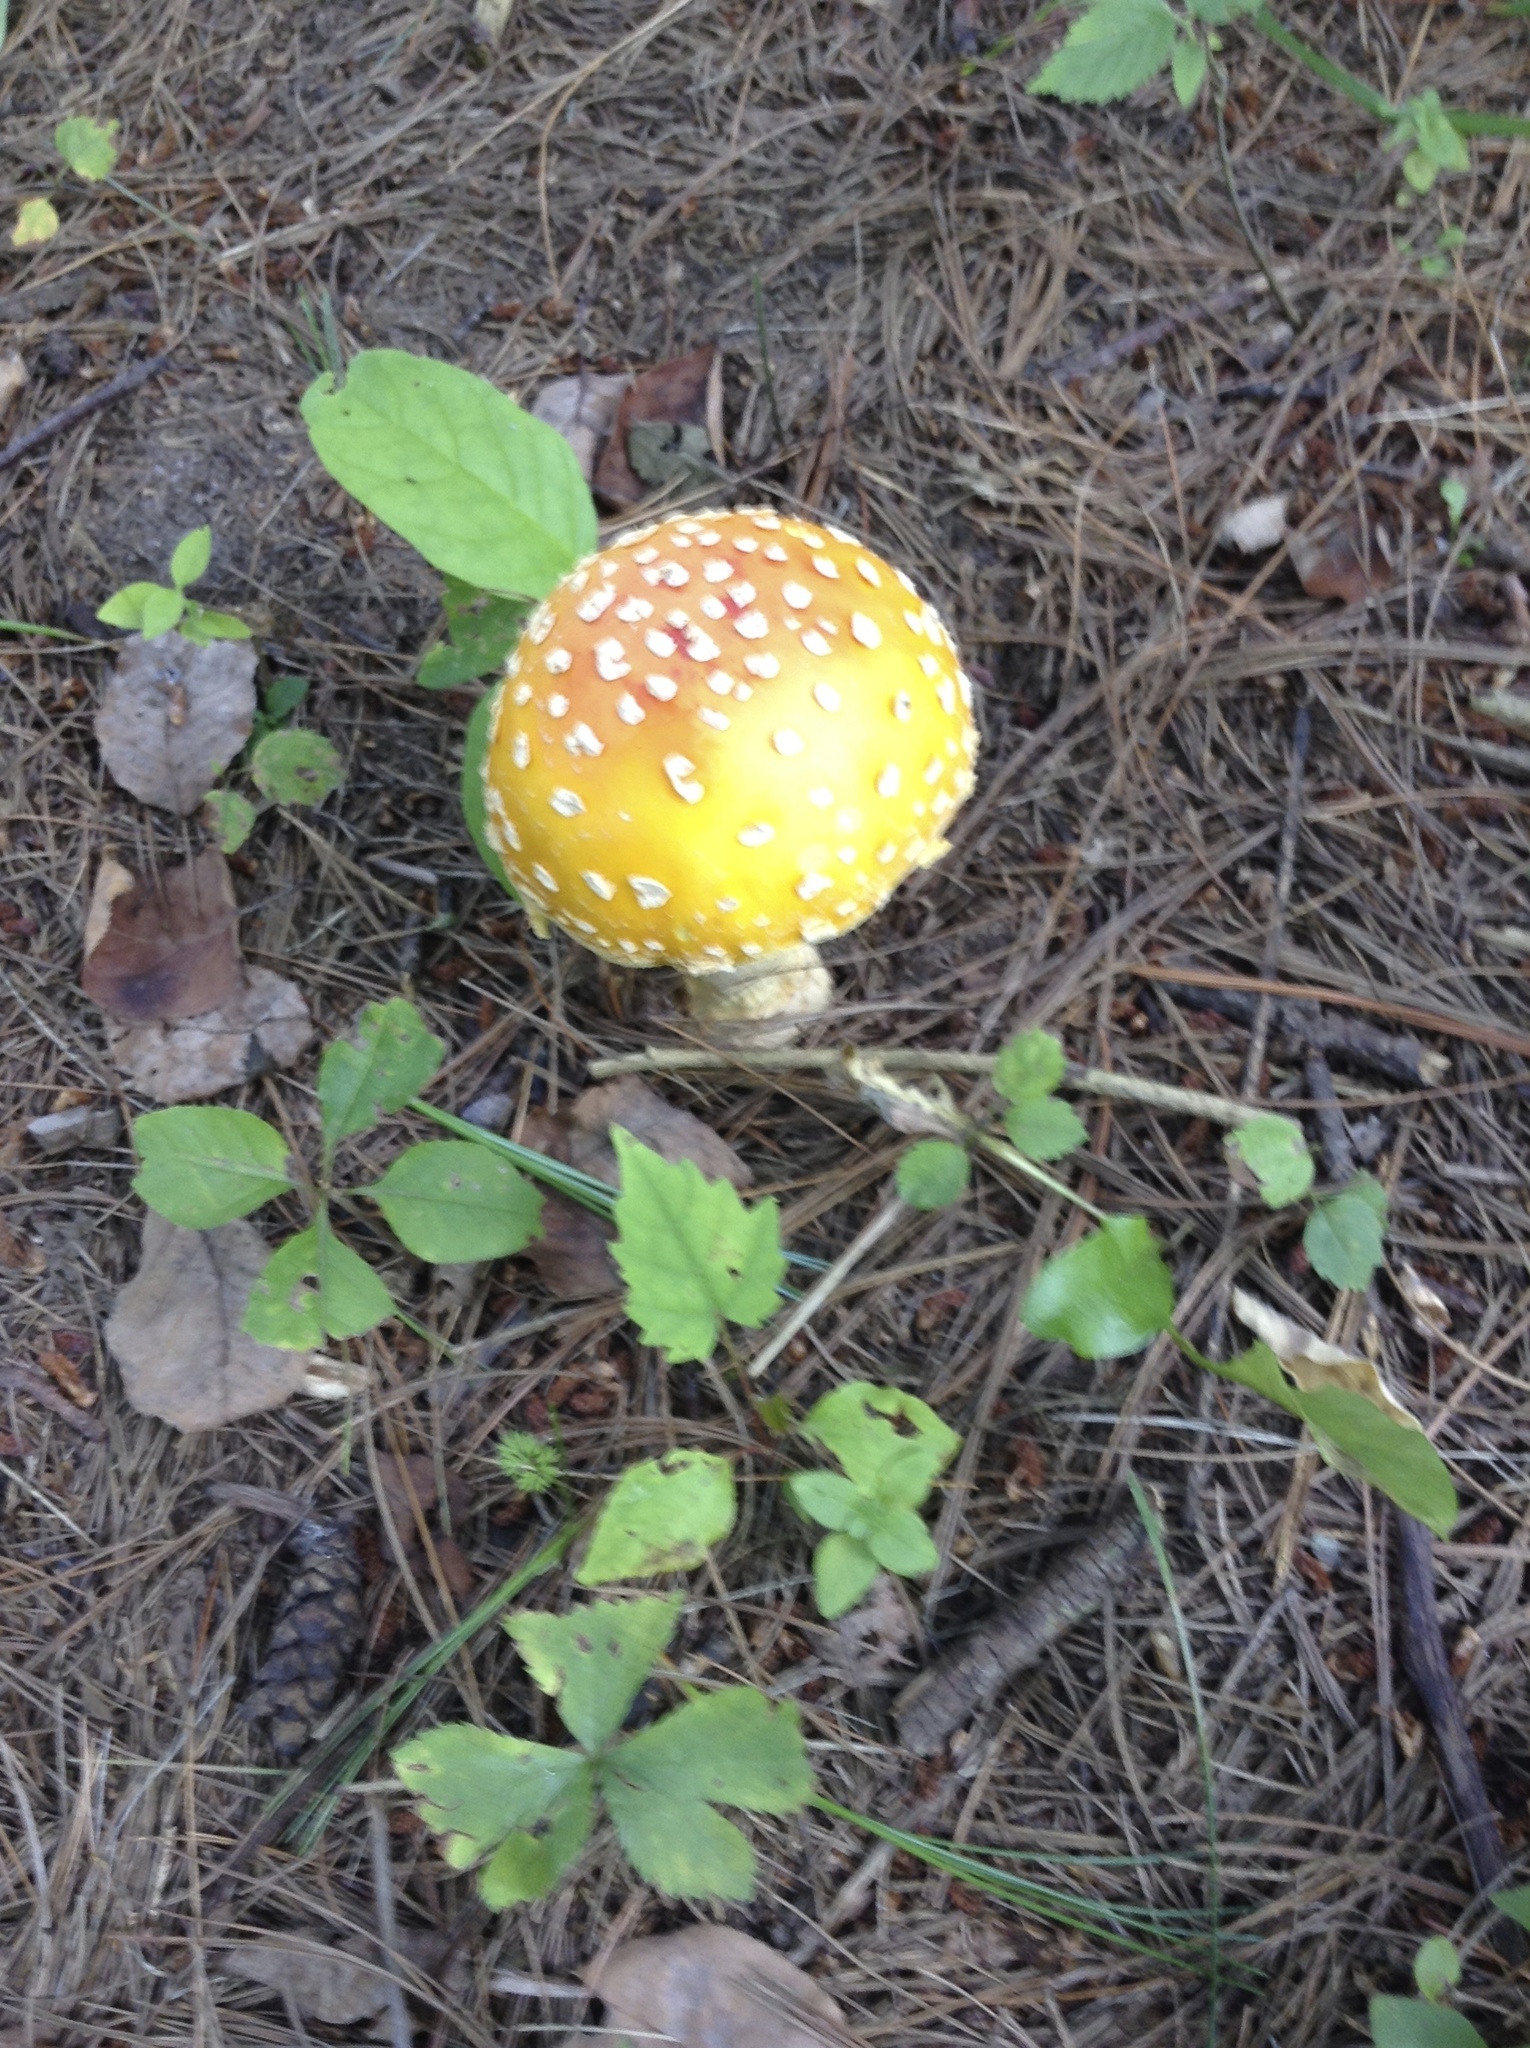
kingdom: Fungi
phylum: Basidiomycota
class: Agaricomycetes
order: Agaricales
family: Amanitaceae
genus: Amanita
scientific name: Amanita muscaria
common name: Fly agaric
